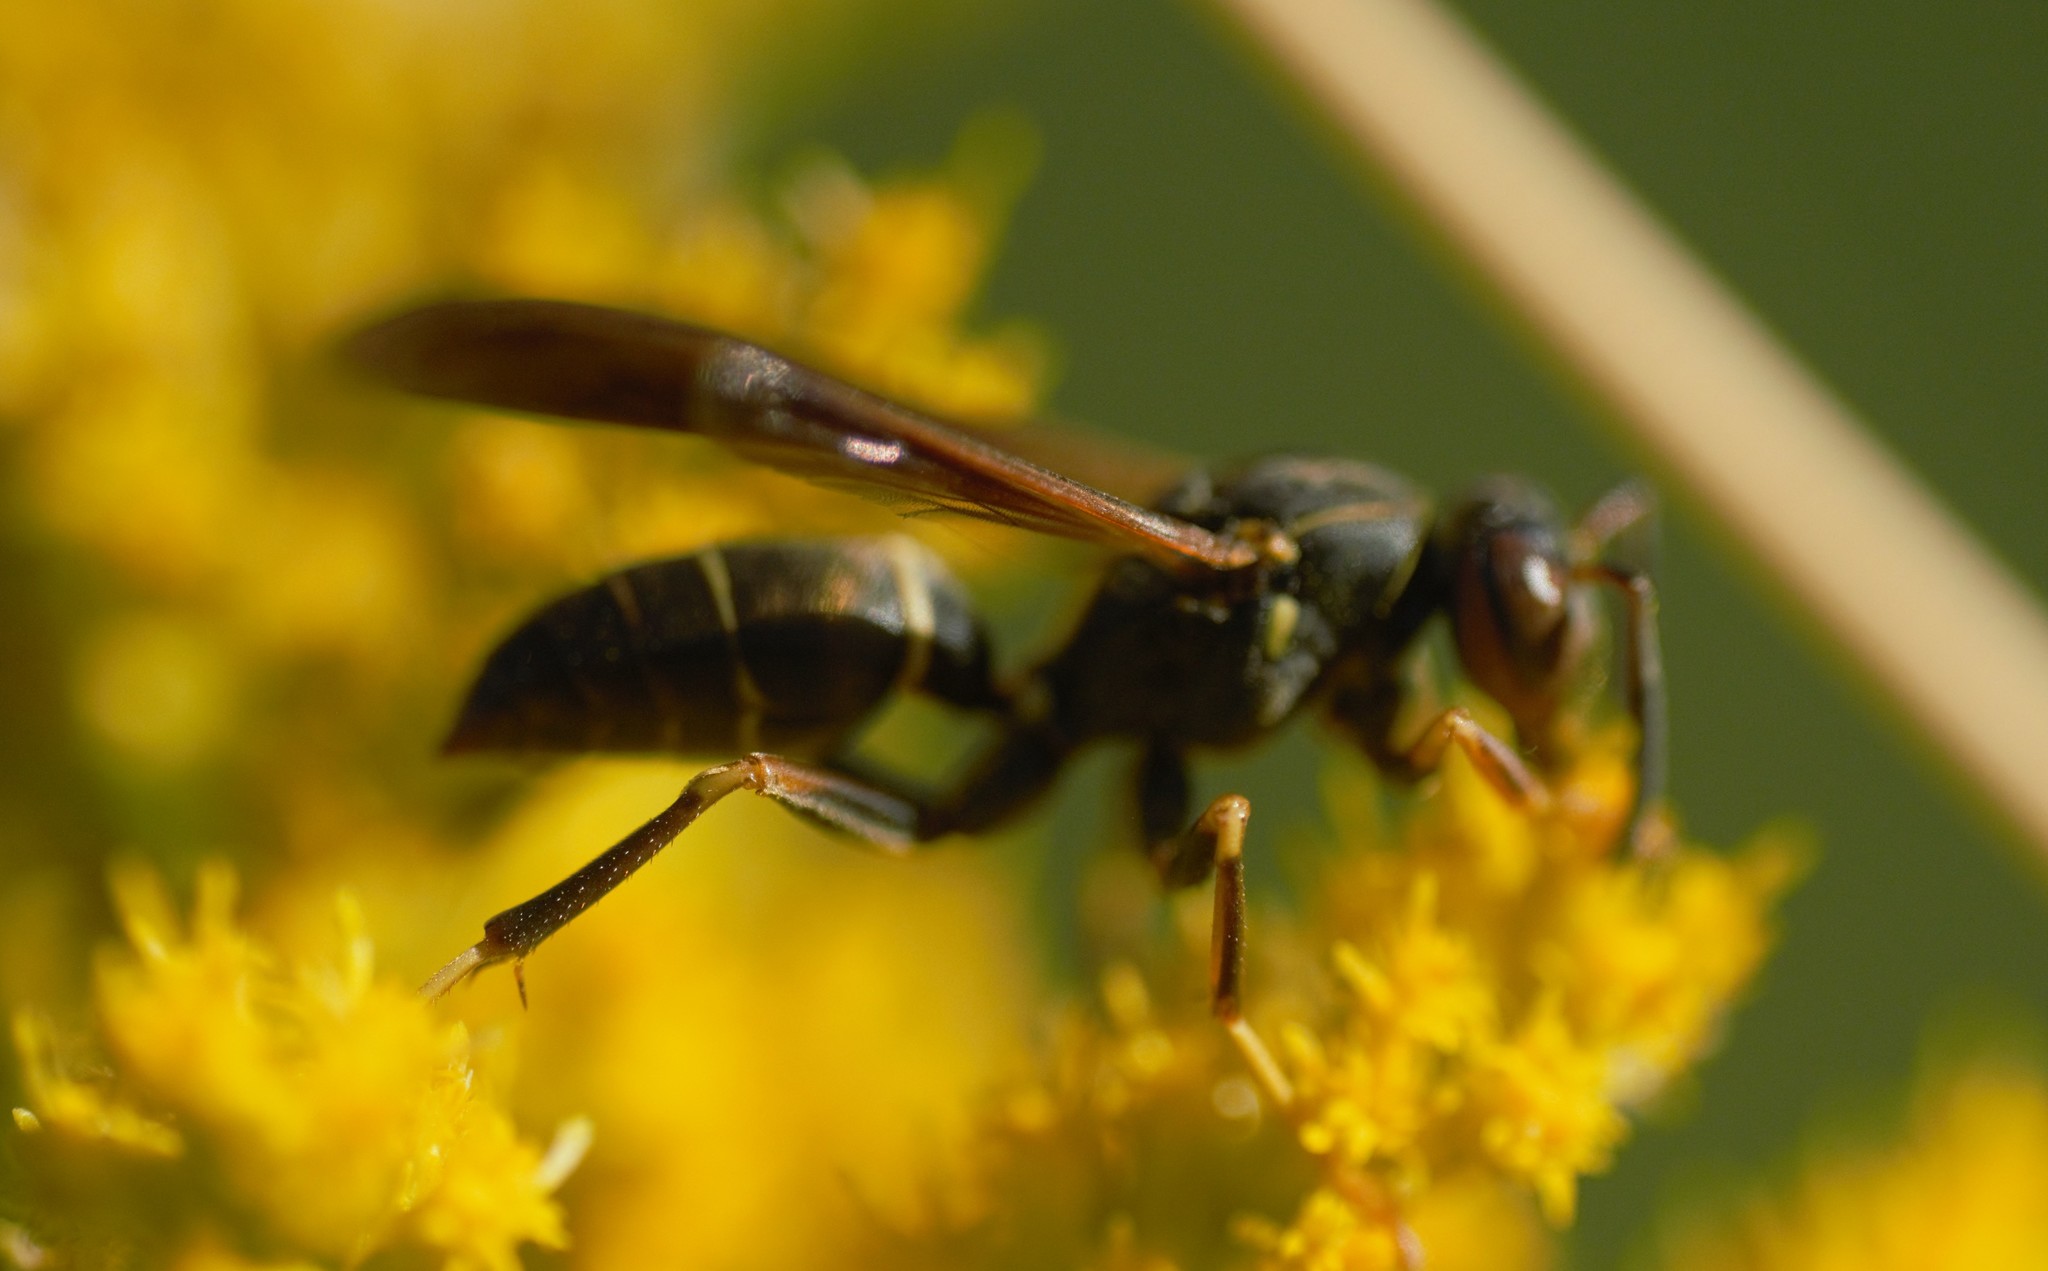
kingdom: Animalia
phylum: Arthropoda
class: Insecta
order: Hymenoptera
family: Eumenidae
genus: Polistes
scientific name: Polistes fuscatus
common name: Dark paper wasp
